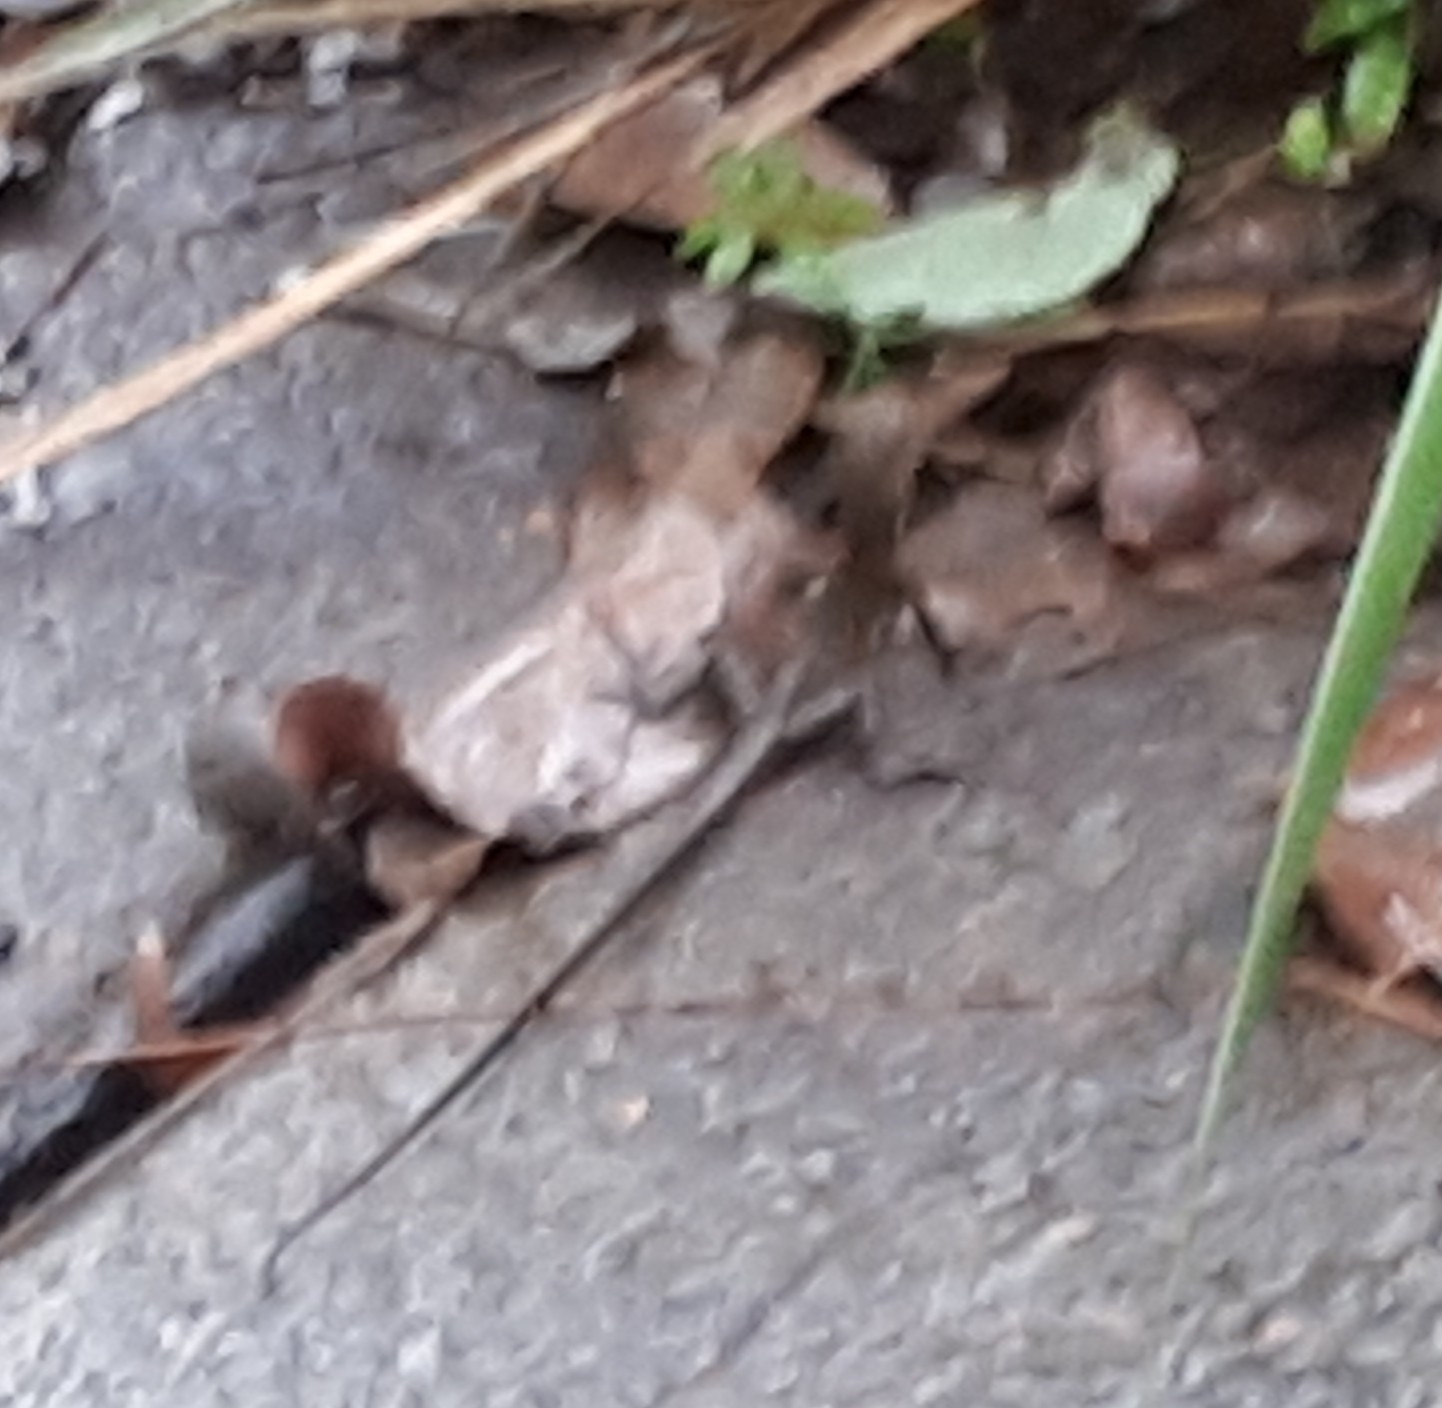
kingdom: Animalia
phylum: Chordata
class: Squamata
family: Agamidae
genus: Intellagama
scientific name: Intellagama lesueurii
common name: Eastern water dragon
